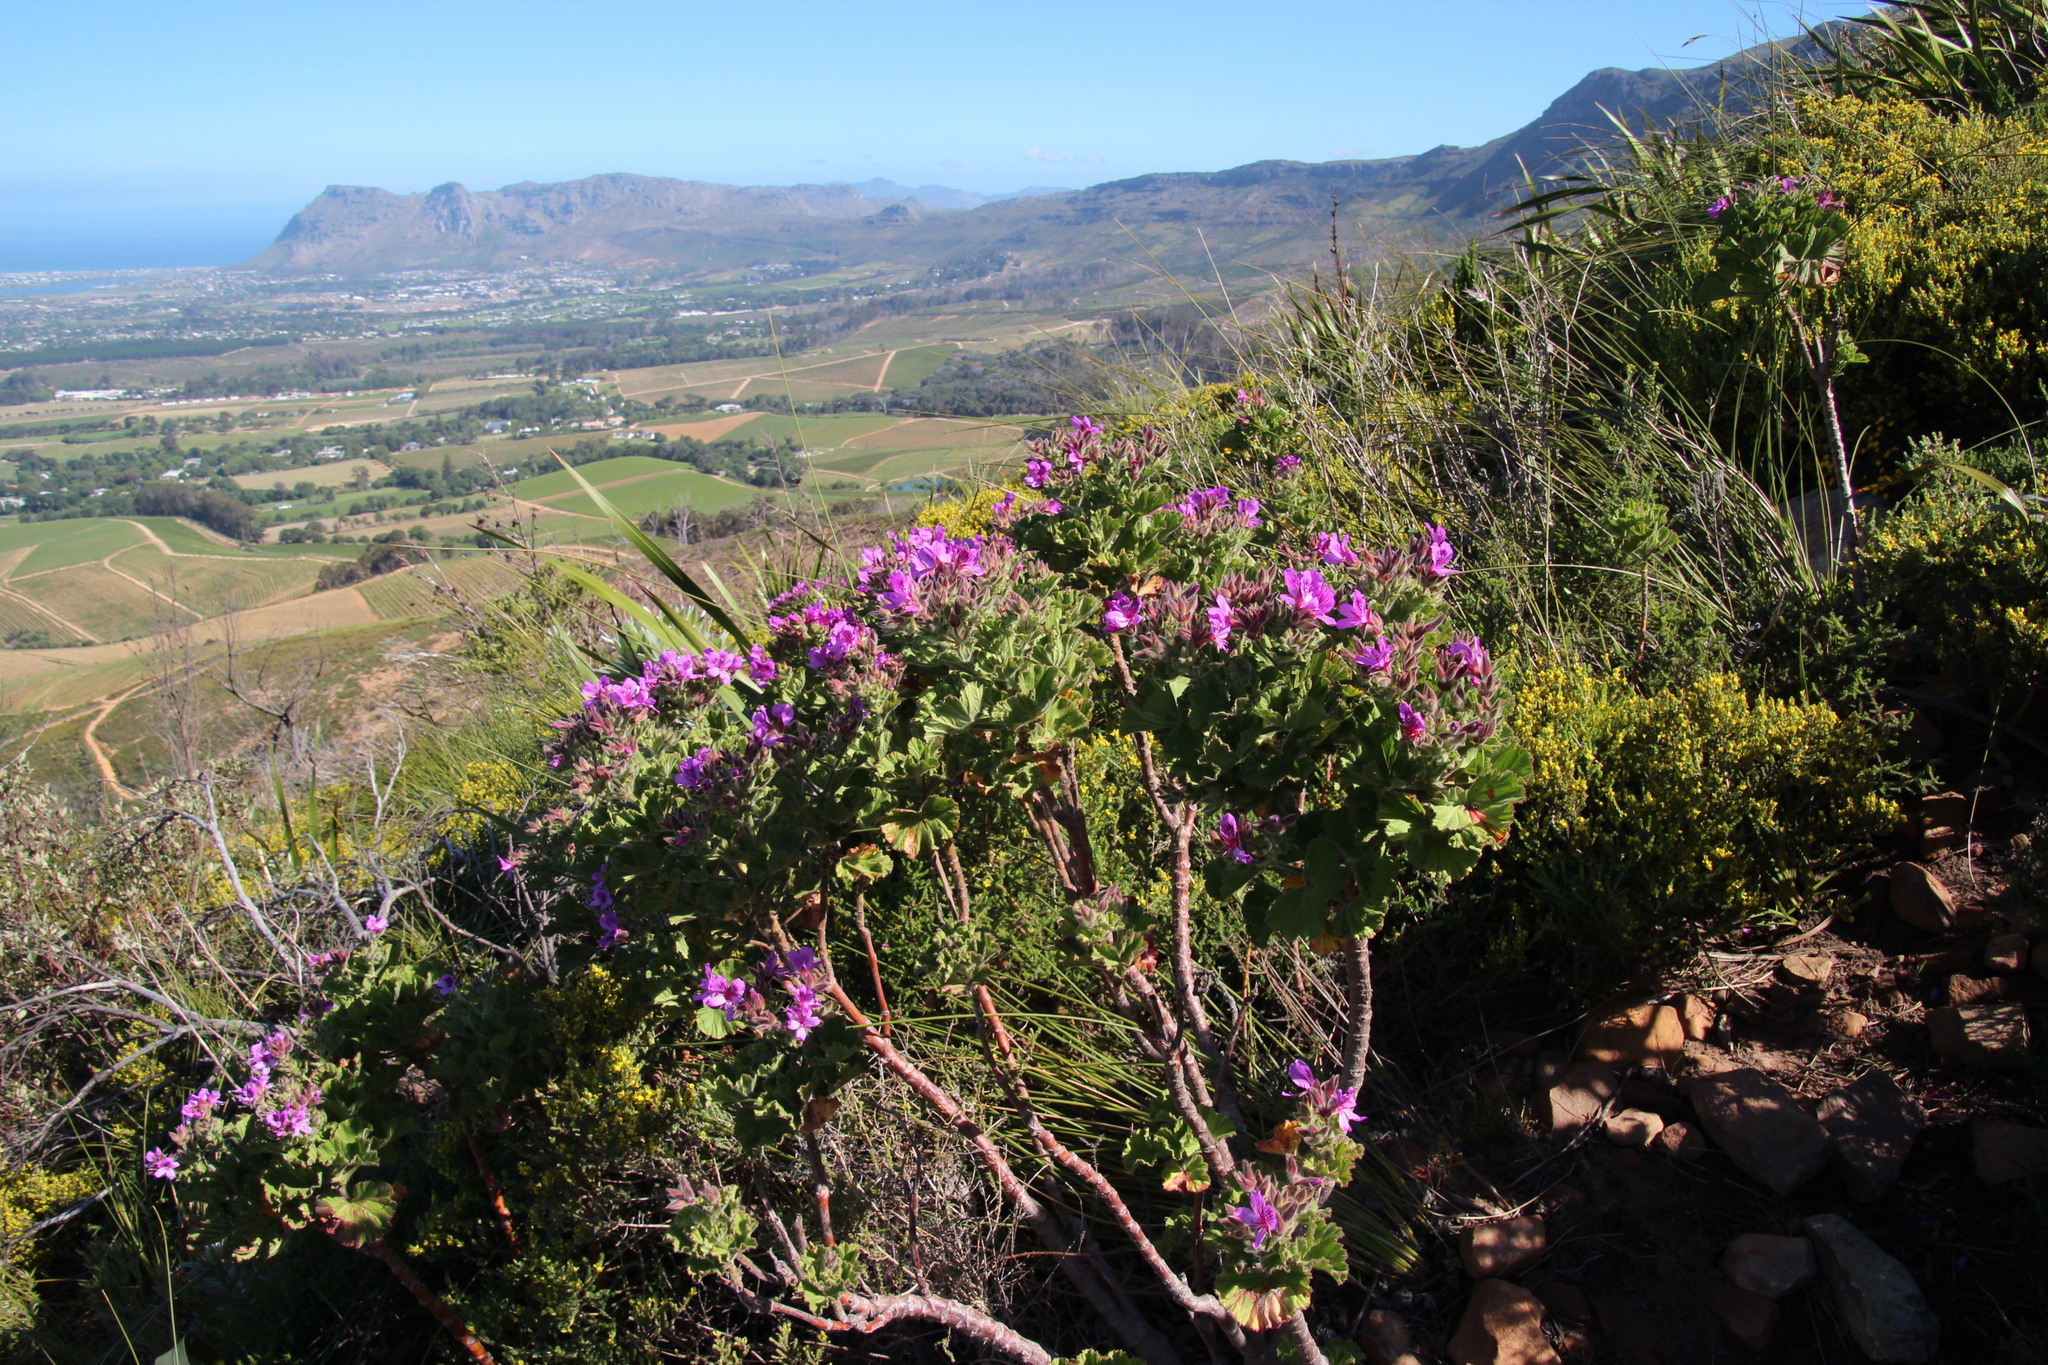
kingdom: Plantae
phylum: Tracheophyta
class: Magnoliopsida
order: Geraniales
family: Geraniaceae
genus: Pelargonium
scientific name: Pelargonium cucullatum
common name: Tree pelargonium
